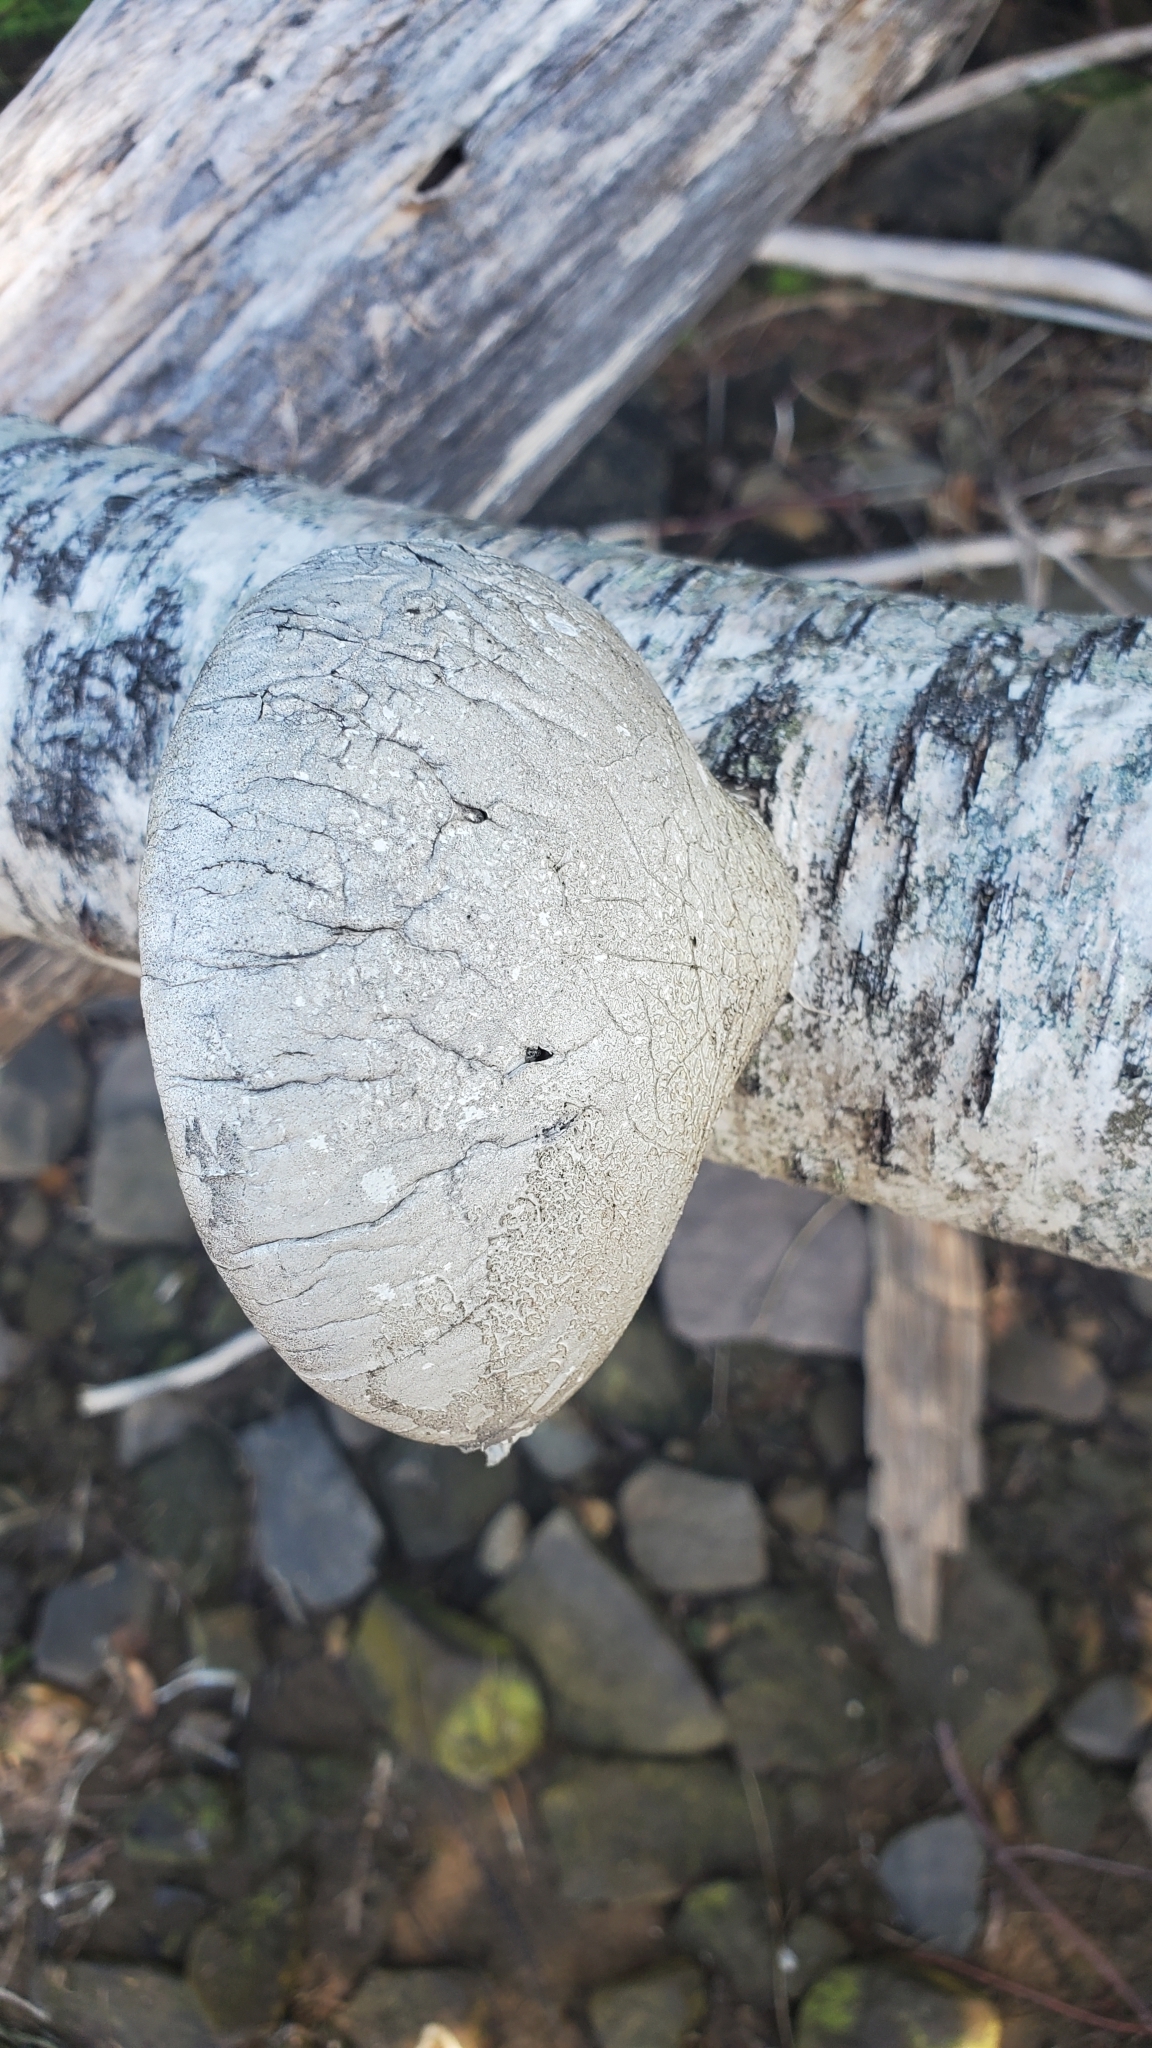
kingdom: Fungi
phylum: Basidiomycota
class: Agaricomycetes
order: Polyporales
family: Fomitopsidaceae
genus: Fomitopsis
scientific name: Fomitopsis betulina
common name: Birch polypore
